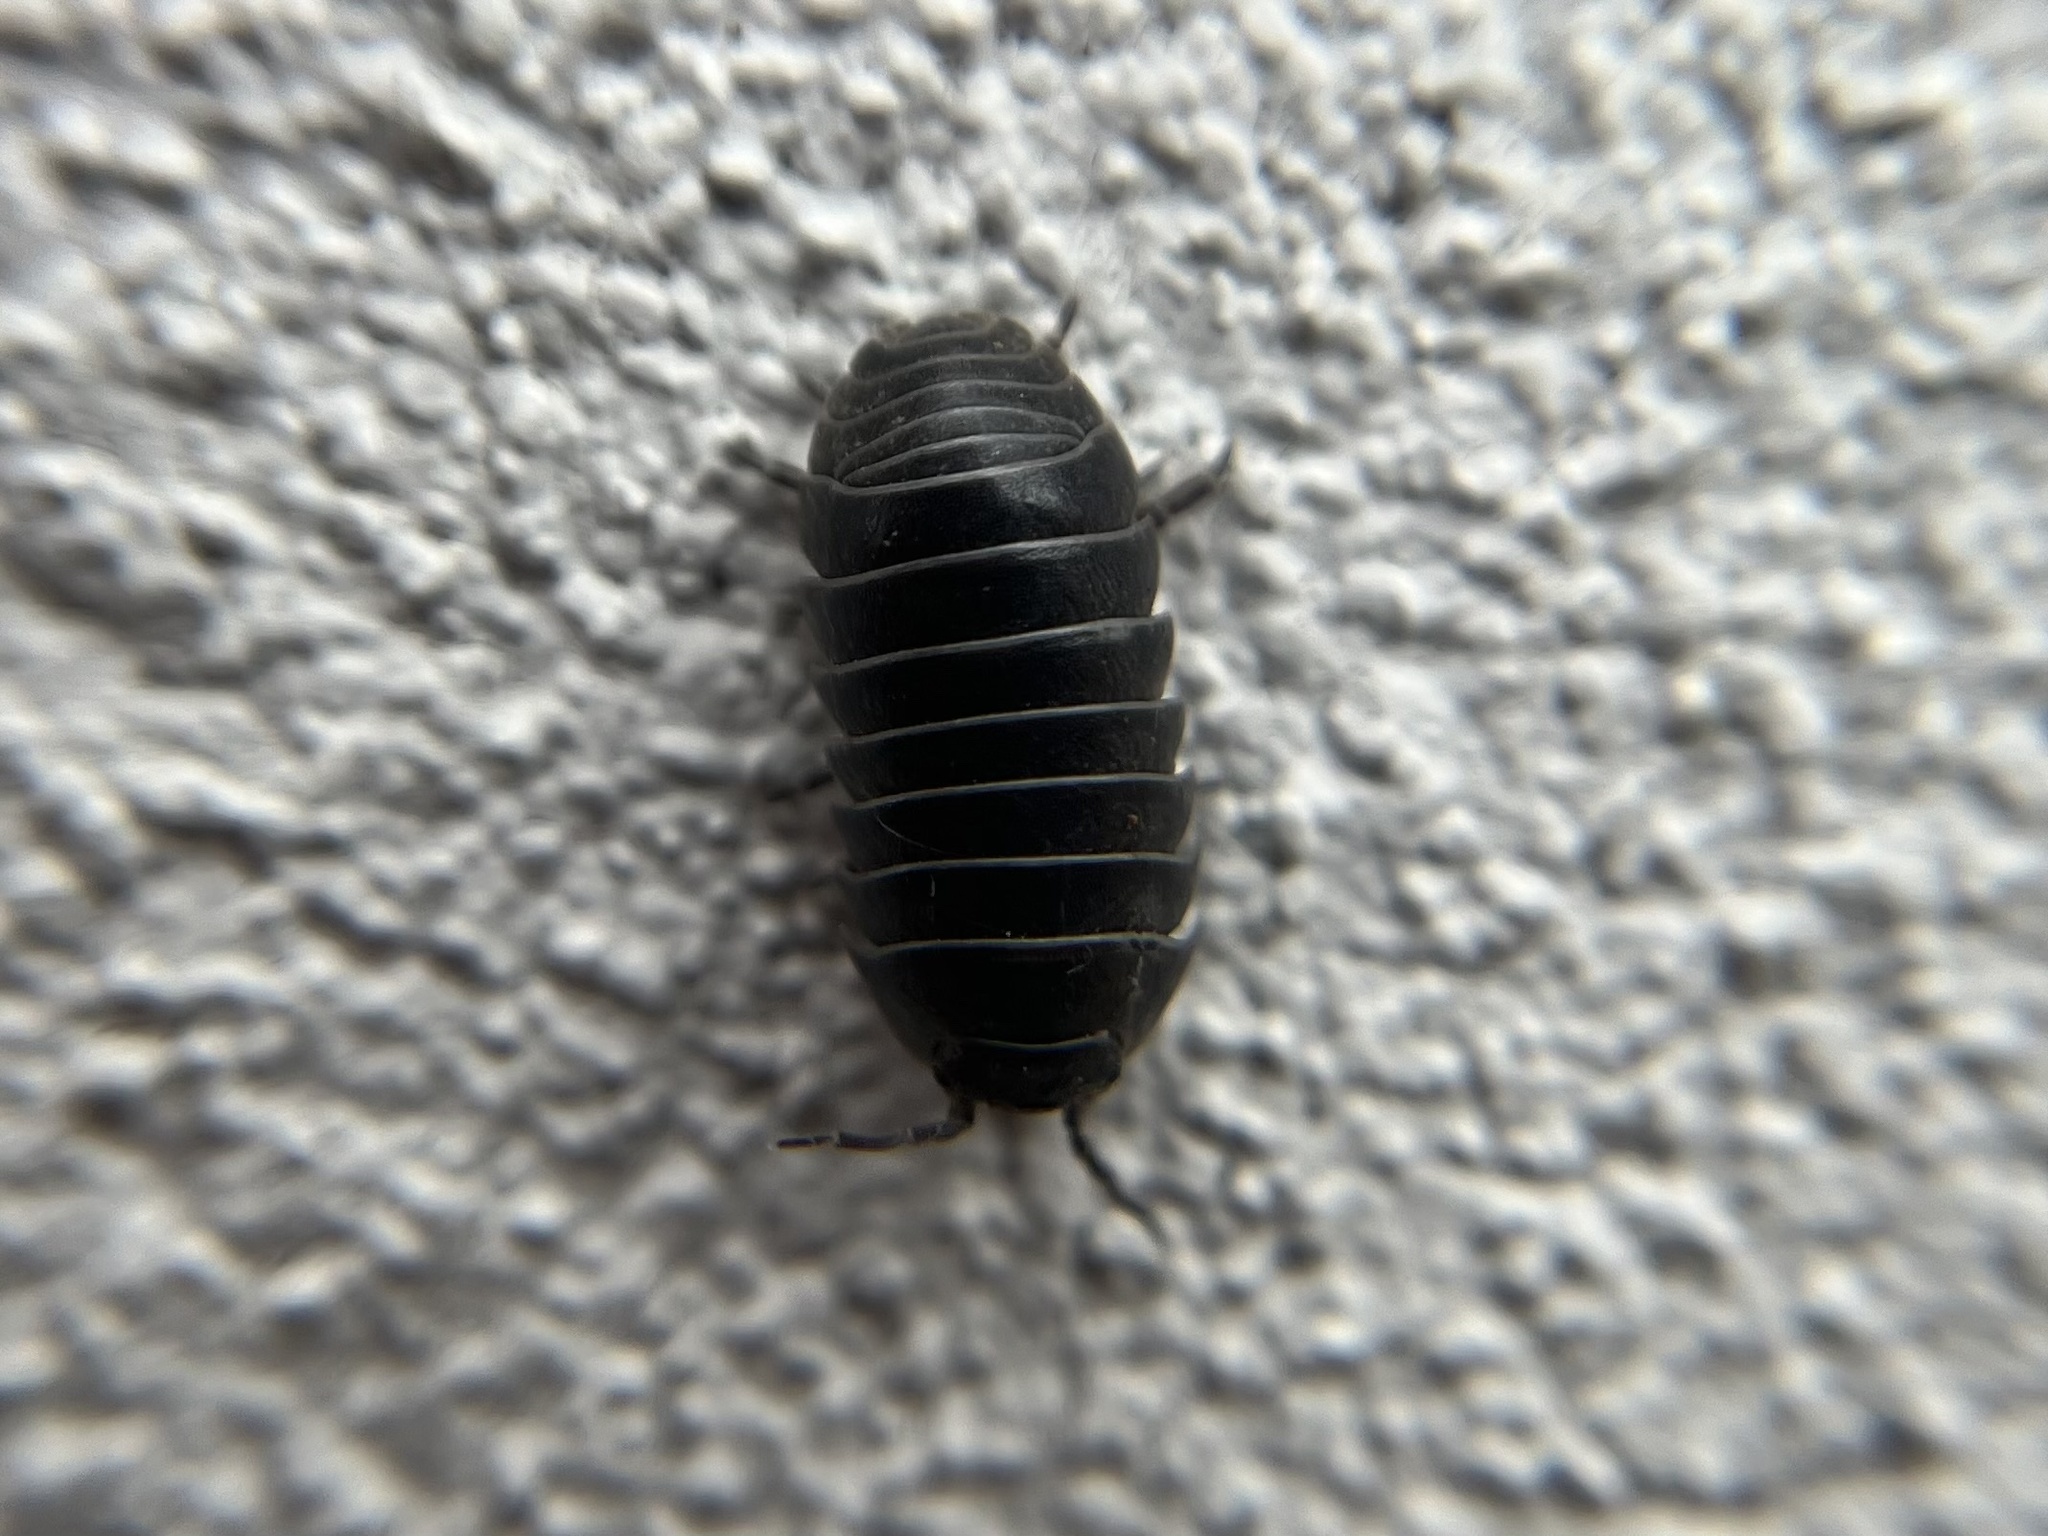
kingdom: Animalia
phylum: Arthropoda
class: Malacostraca
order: Isopoda
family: Armadillidiidae
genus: Armadillidium
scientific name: Armadillidium vulgare
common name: Common pill woodlouse
